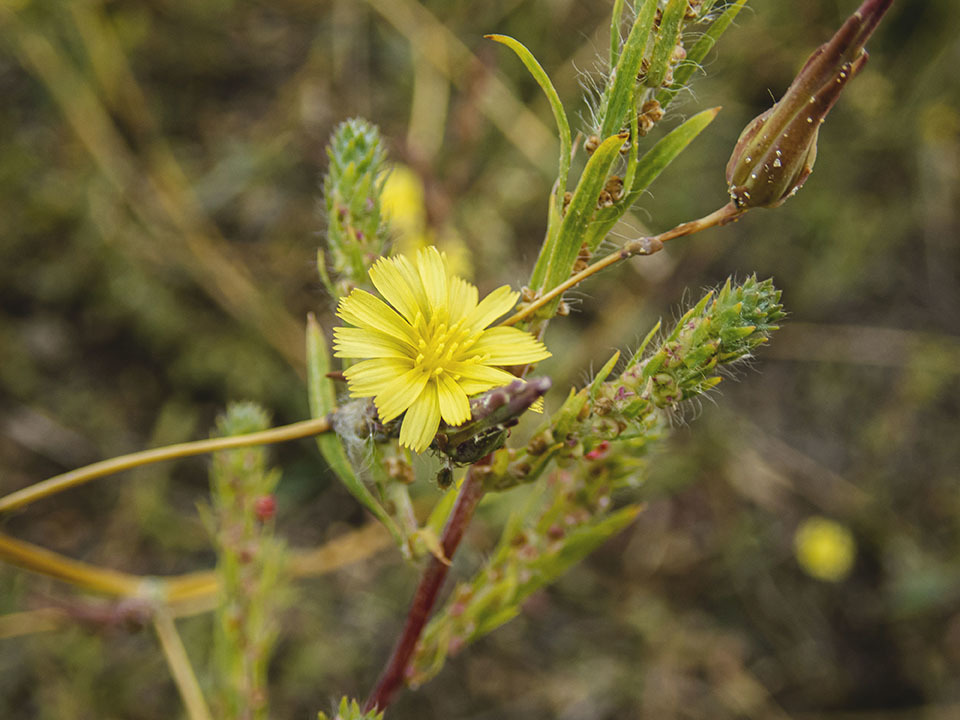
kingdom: Plantae
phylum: Tracheophyta
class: Magnoliopsida
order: Asterales
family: Asteraceae
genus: Lactuca
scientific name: Lactuca serriola
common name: Prickly lettuce
